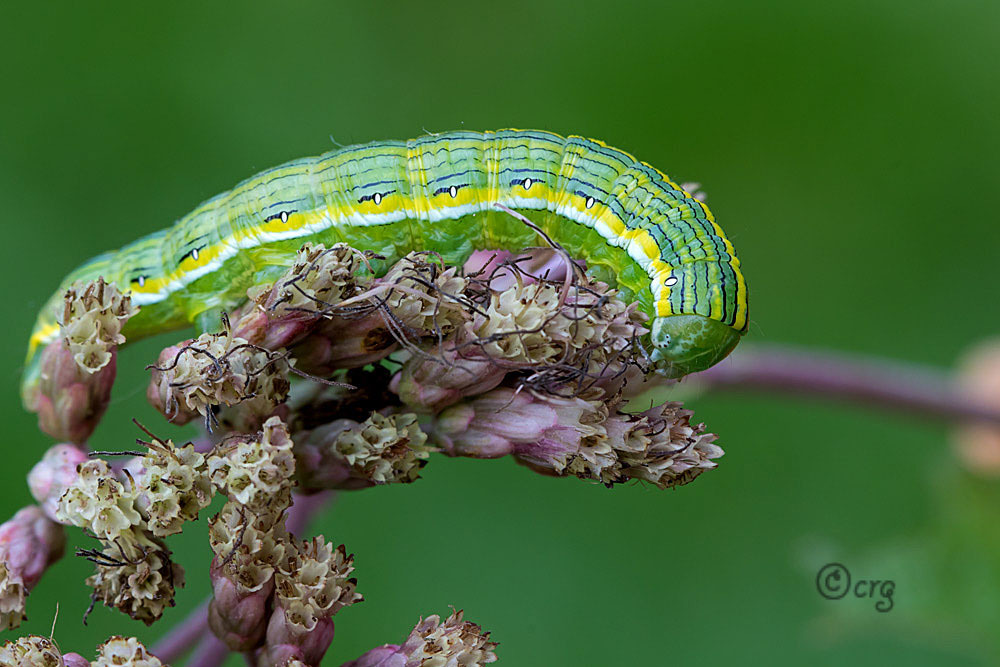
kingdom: Animalia
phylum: Arthropoda
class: Insecta
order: Lepidoptera
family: Noctuidae
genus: Cucullia
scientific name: Cucullia asteroides
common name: Asteroid moth
